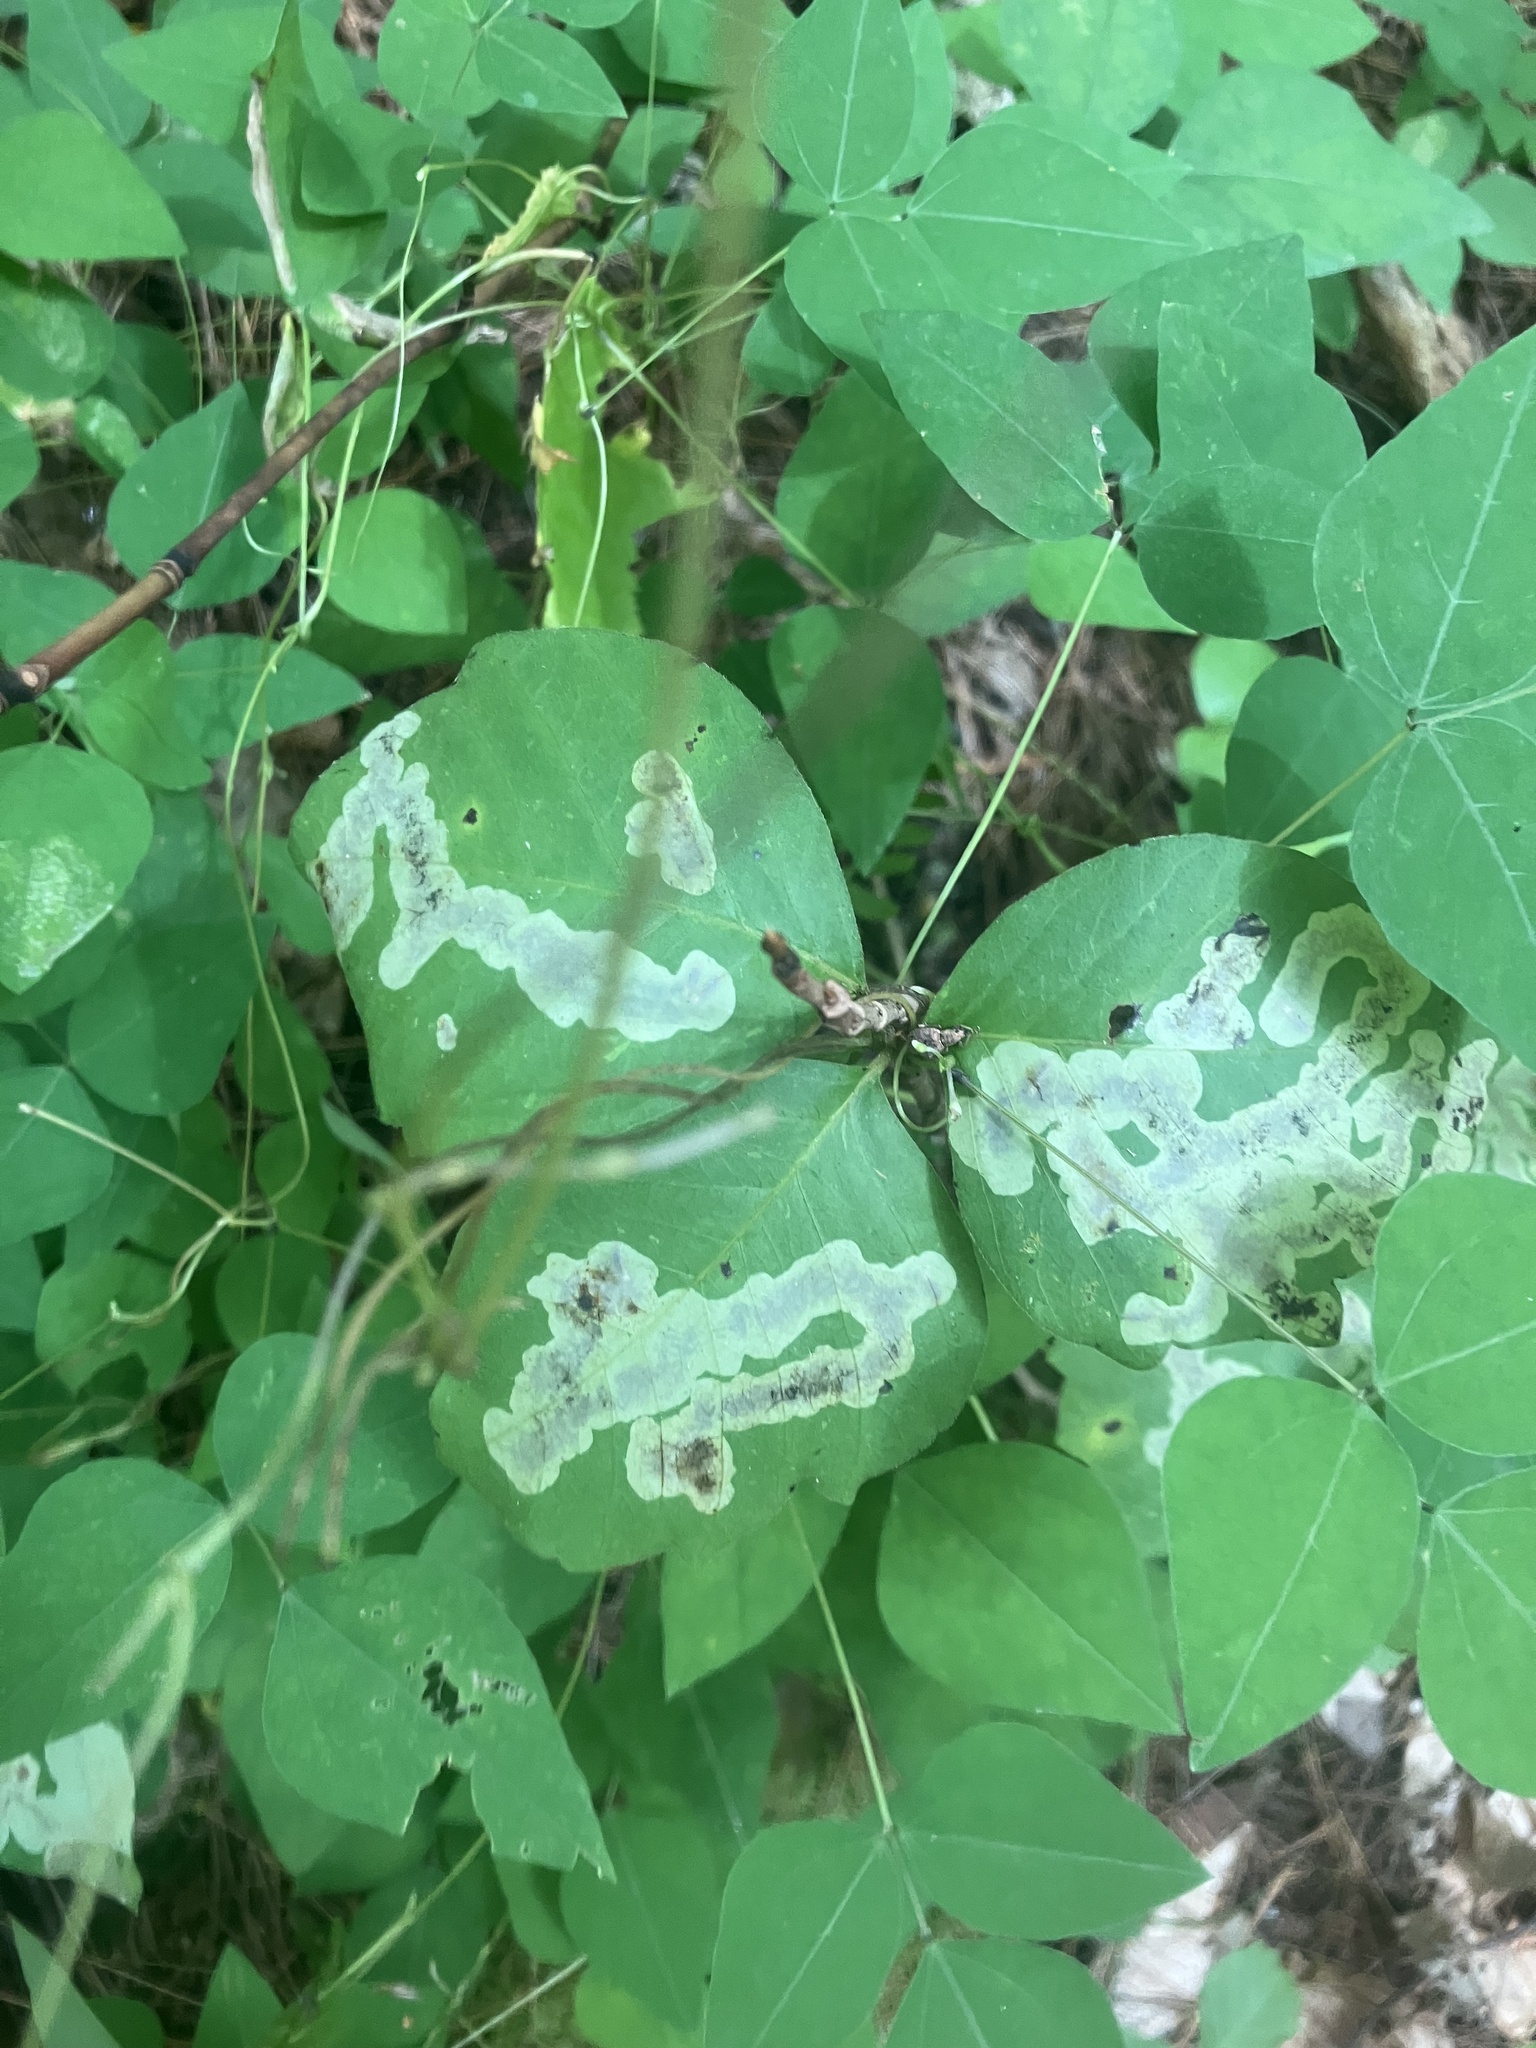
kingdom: Animalia
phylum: Arthropoda
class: Insecta
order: Lepidoptera
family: Gracillariidae
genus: Cameraria
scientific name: Cameraria guttifinitella
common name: Poison ivy leaf-miner moth
